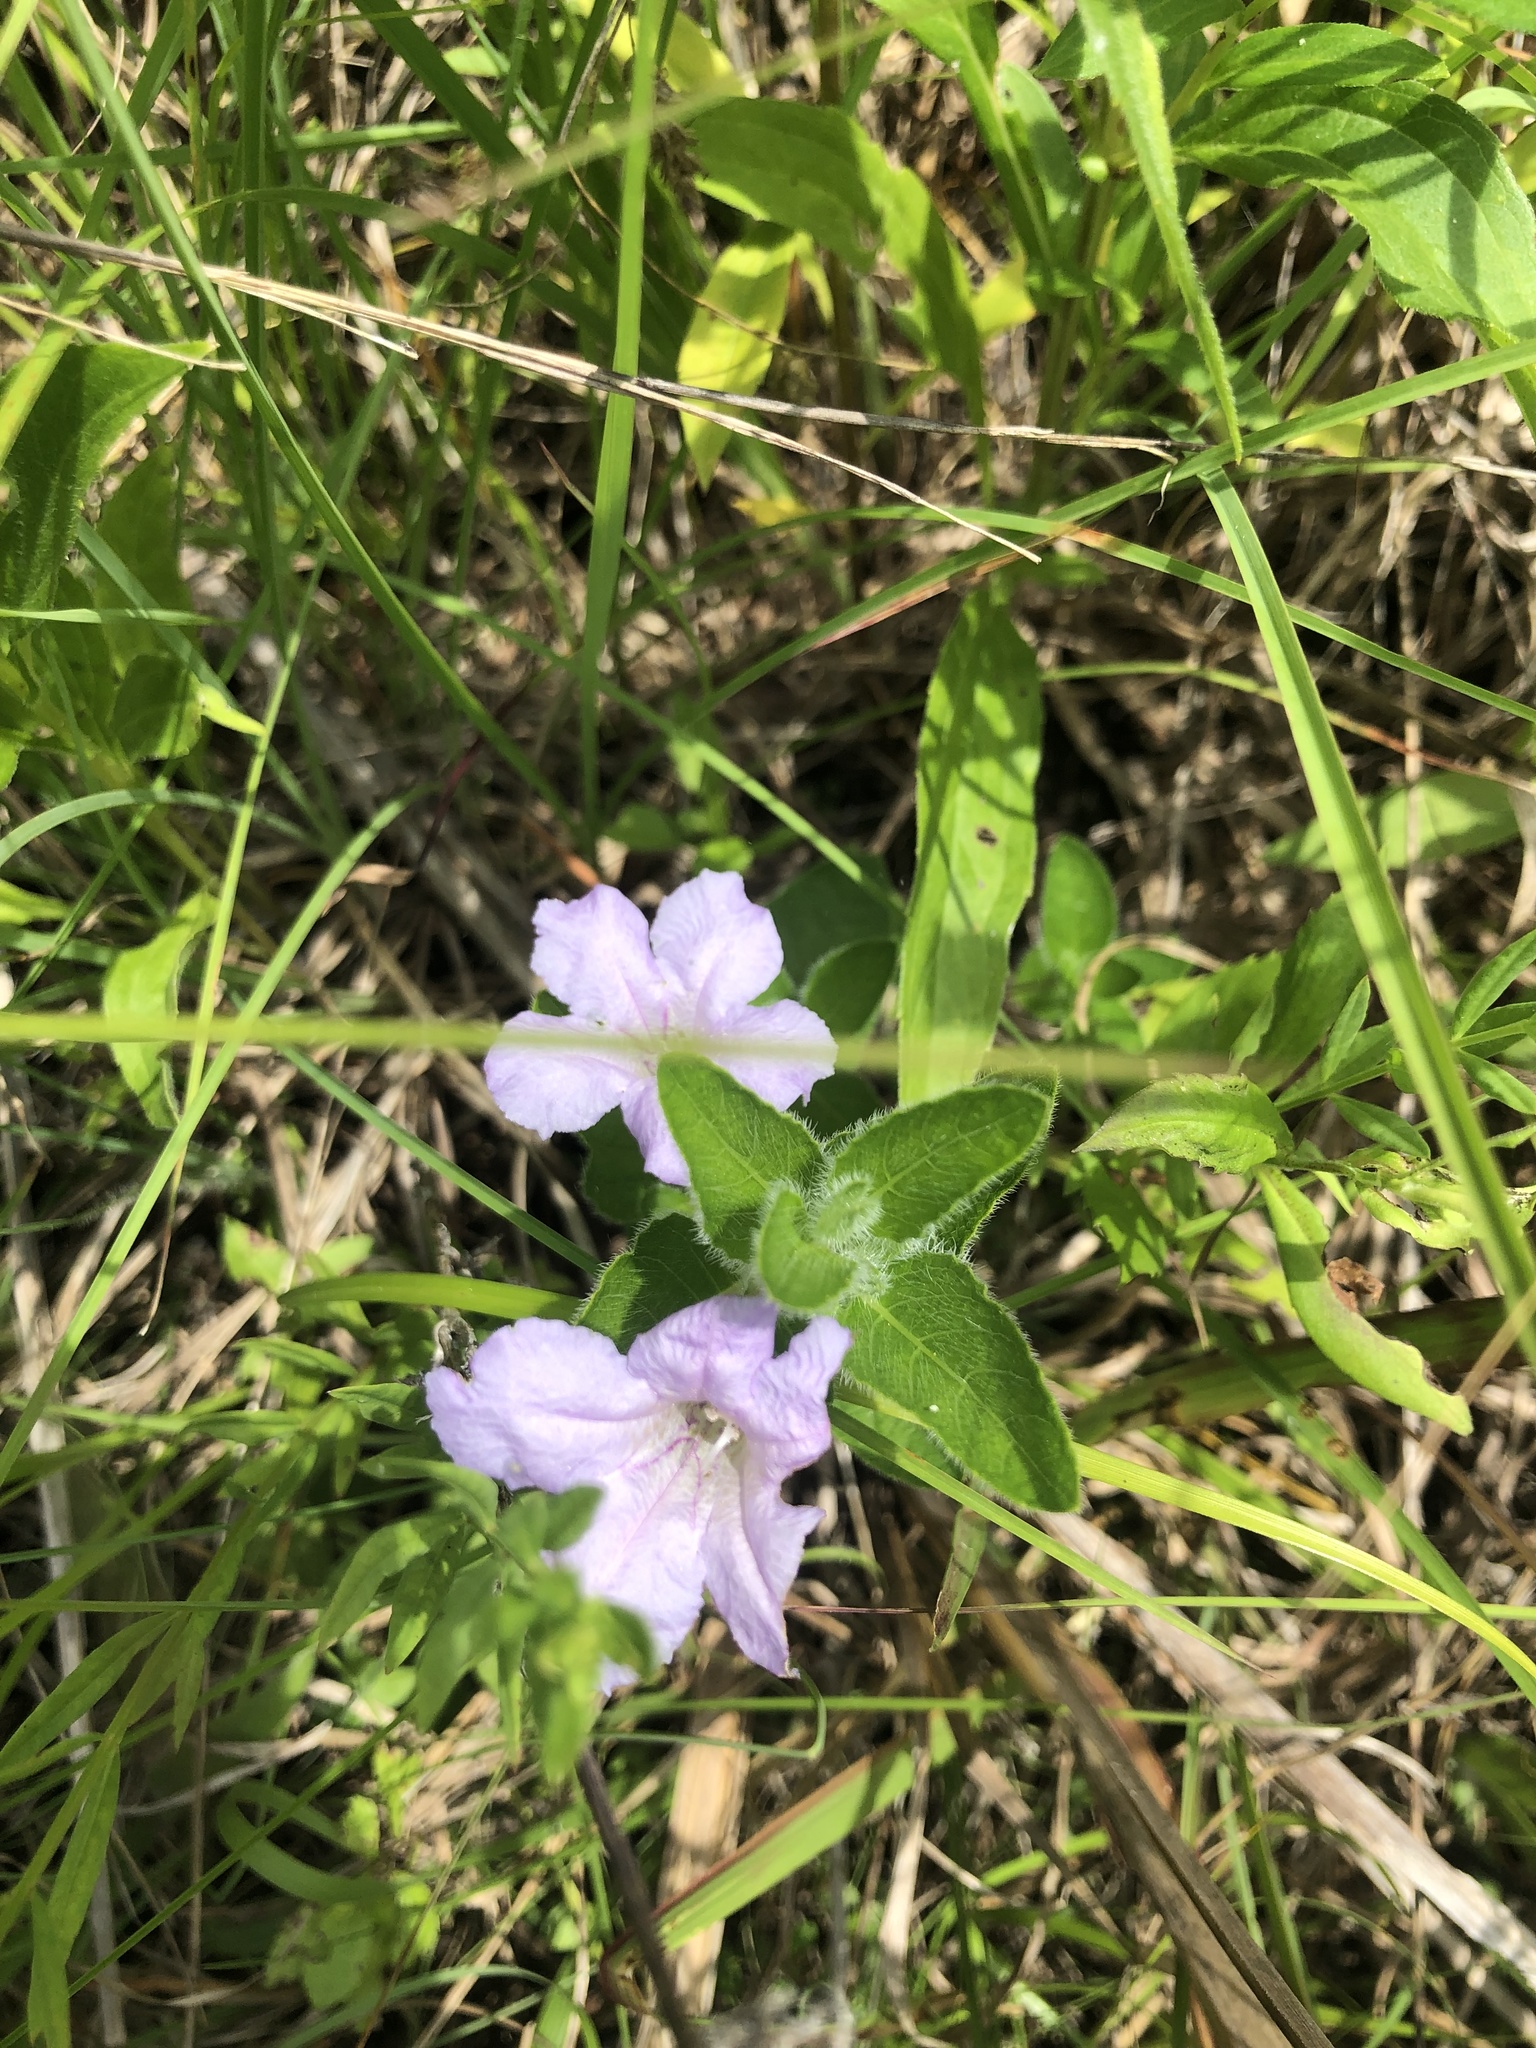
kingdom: Plantae
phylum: Tracheophyta
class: Magnoliopsida
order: Lamiales
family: Acanthaceae
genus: Ruellia
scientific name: Ruellia humilis
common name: Fringe-leaf ruellia
